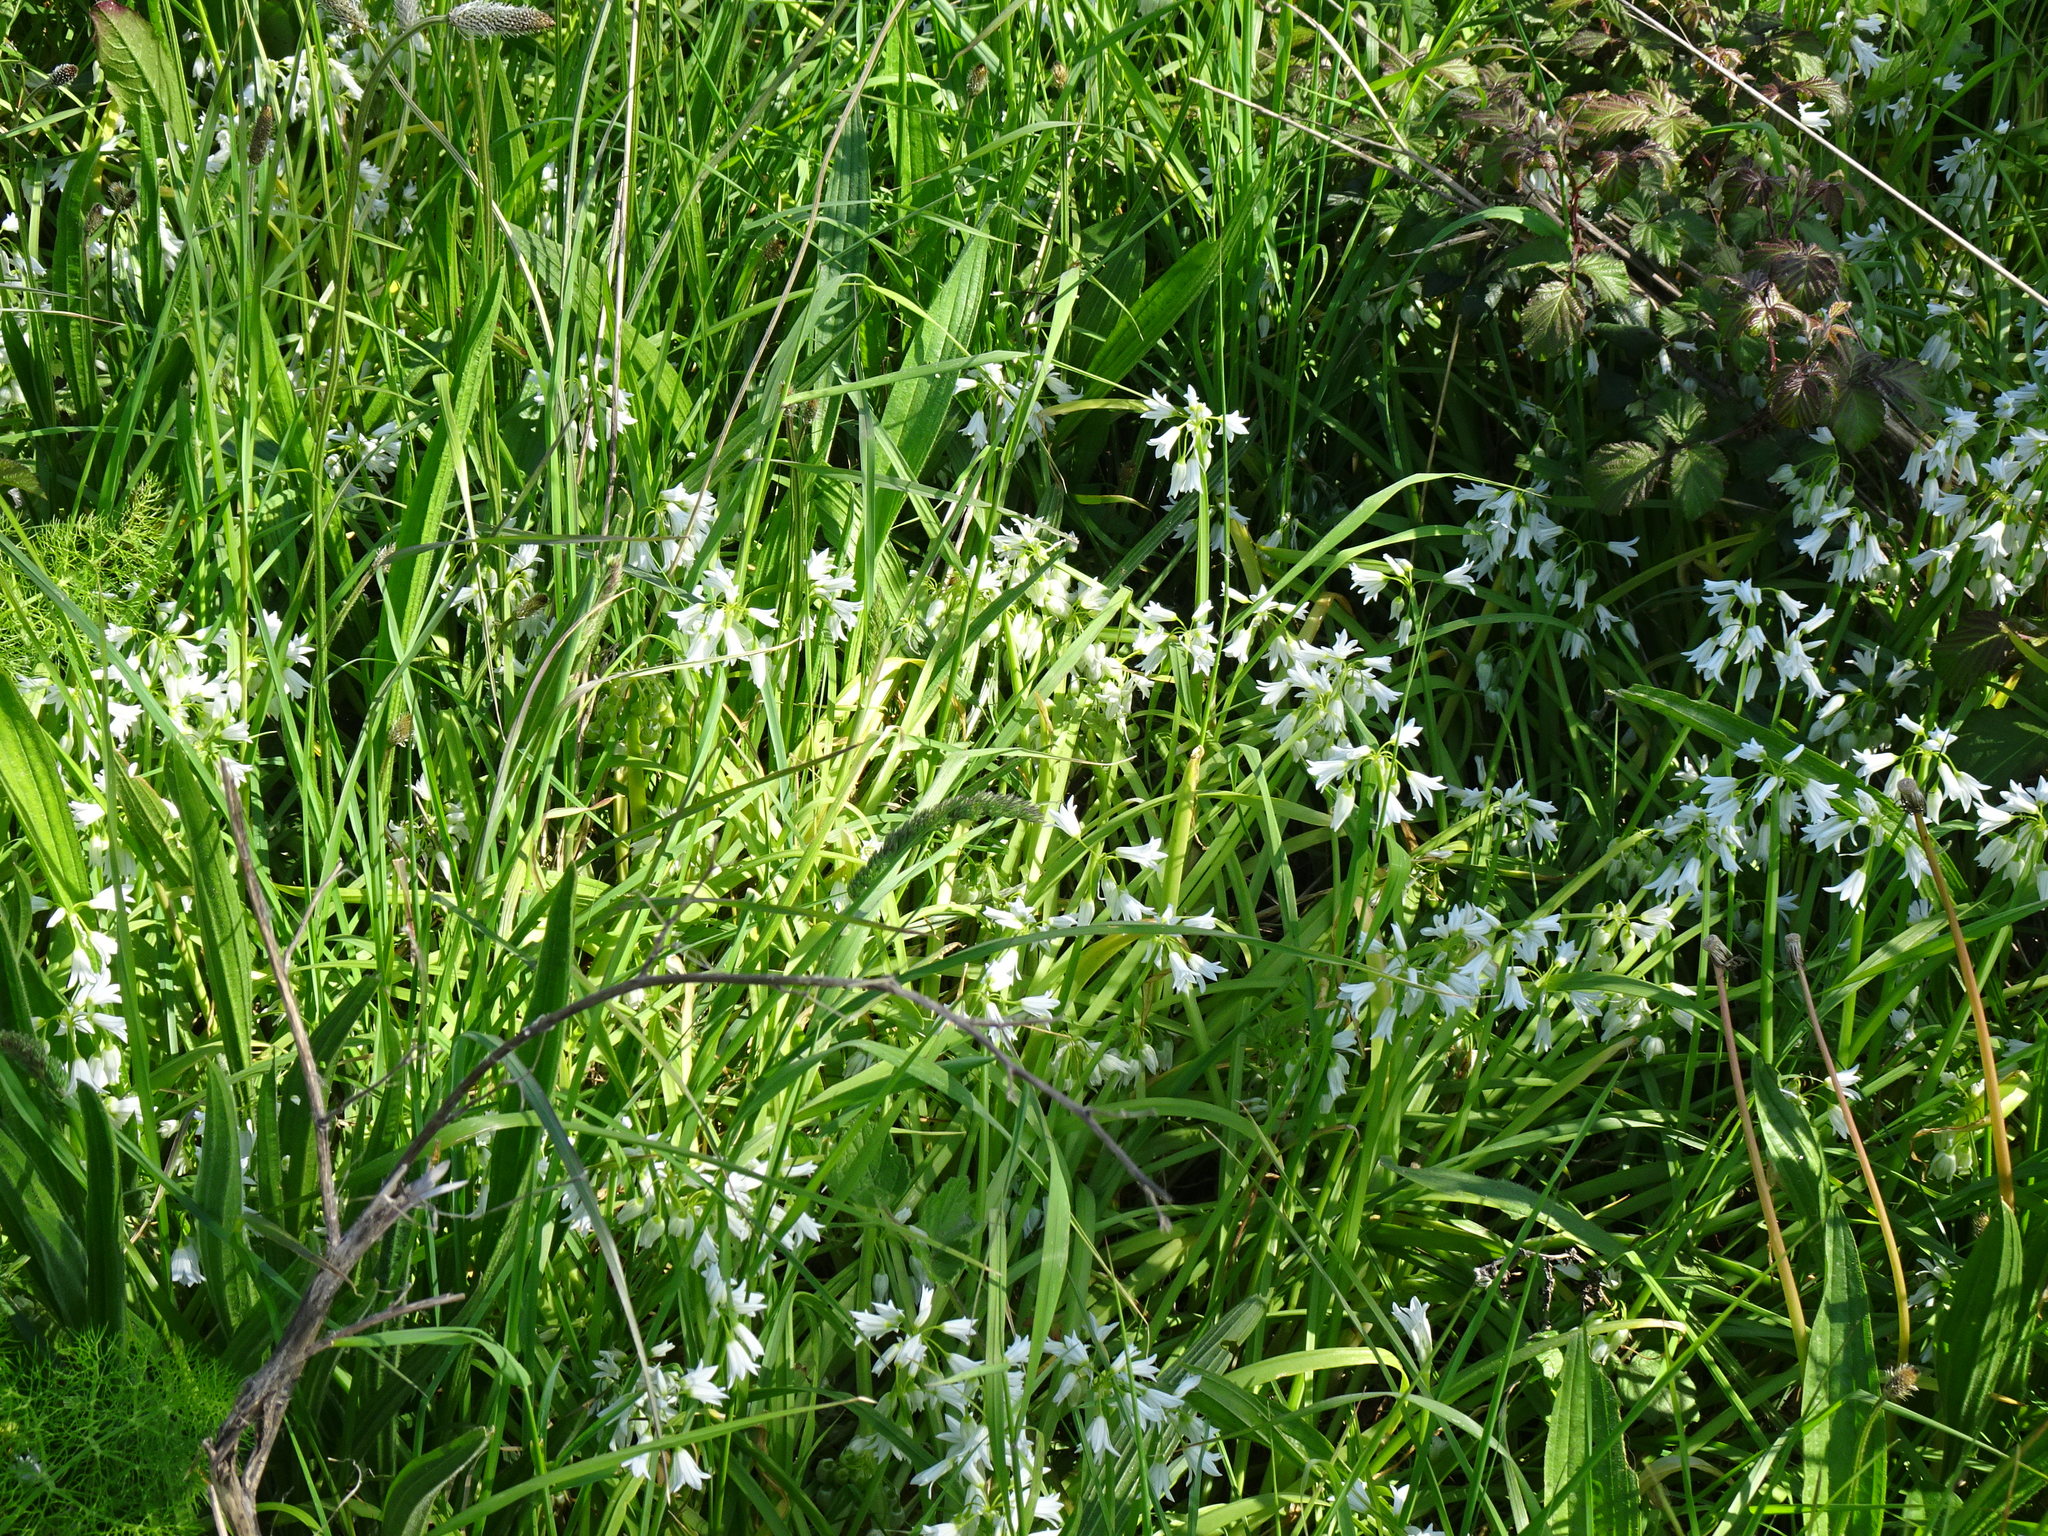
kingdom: Plantae
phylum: Tracheophyta
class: Liliopsida
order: Asparagales
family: Amaryllidaceae
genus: Allium
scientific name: Allium triquetrum
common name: Three-cornered garlic
